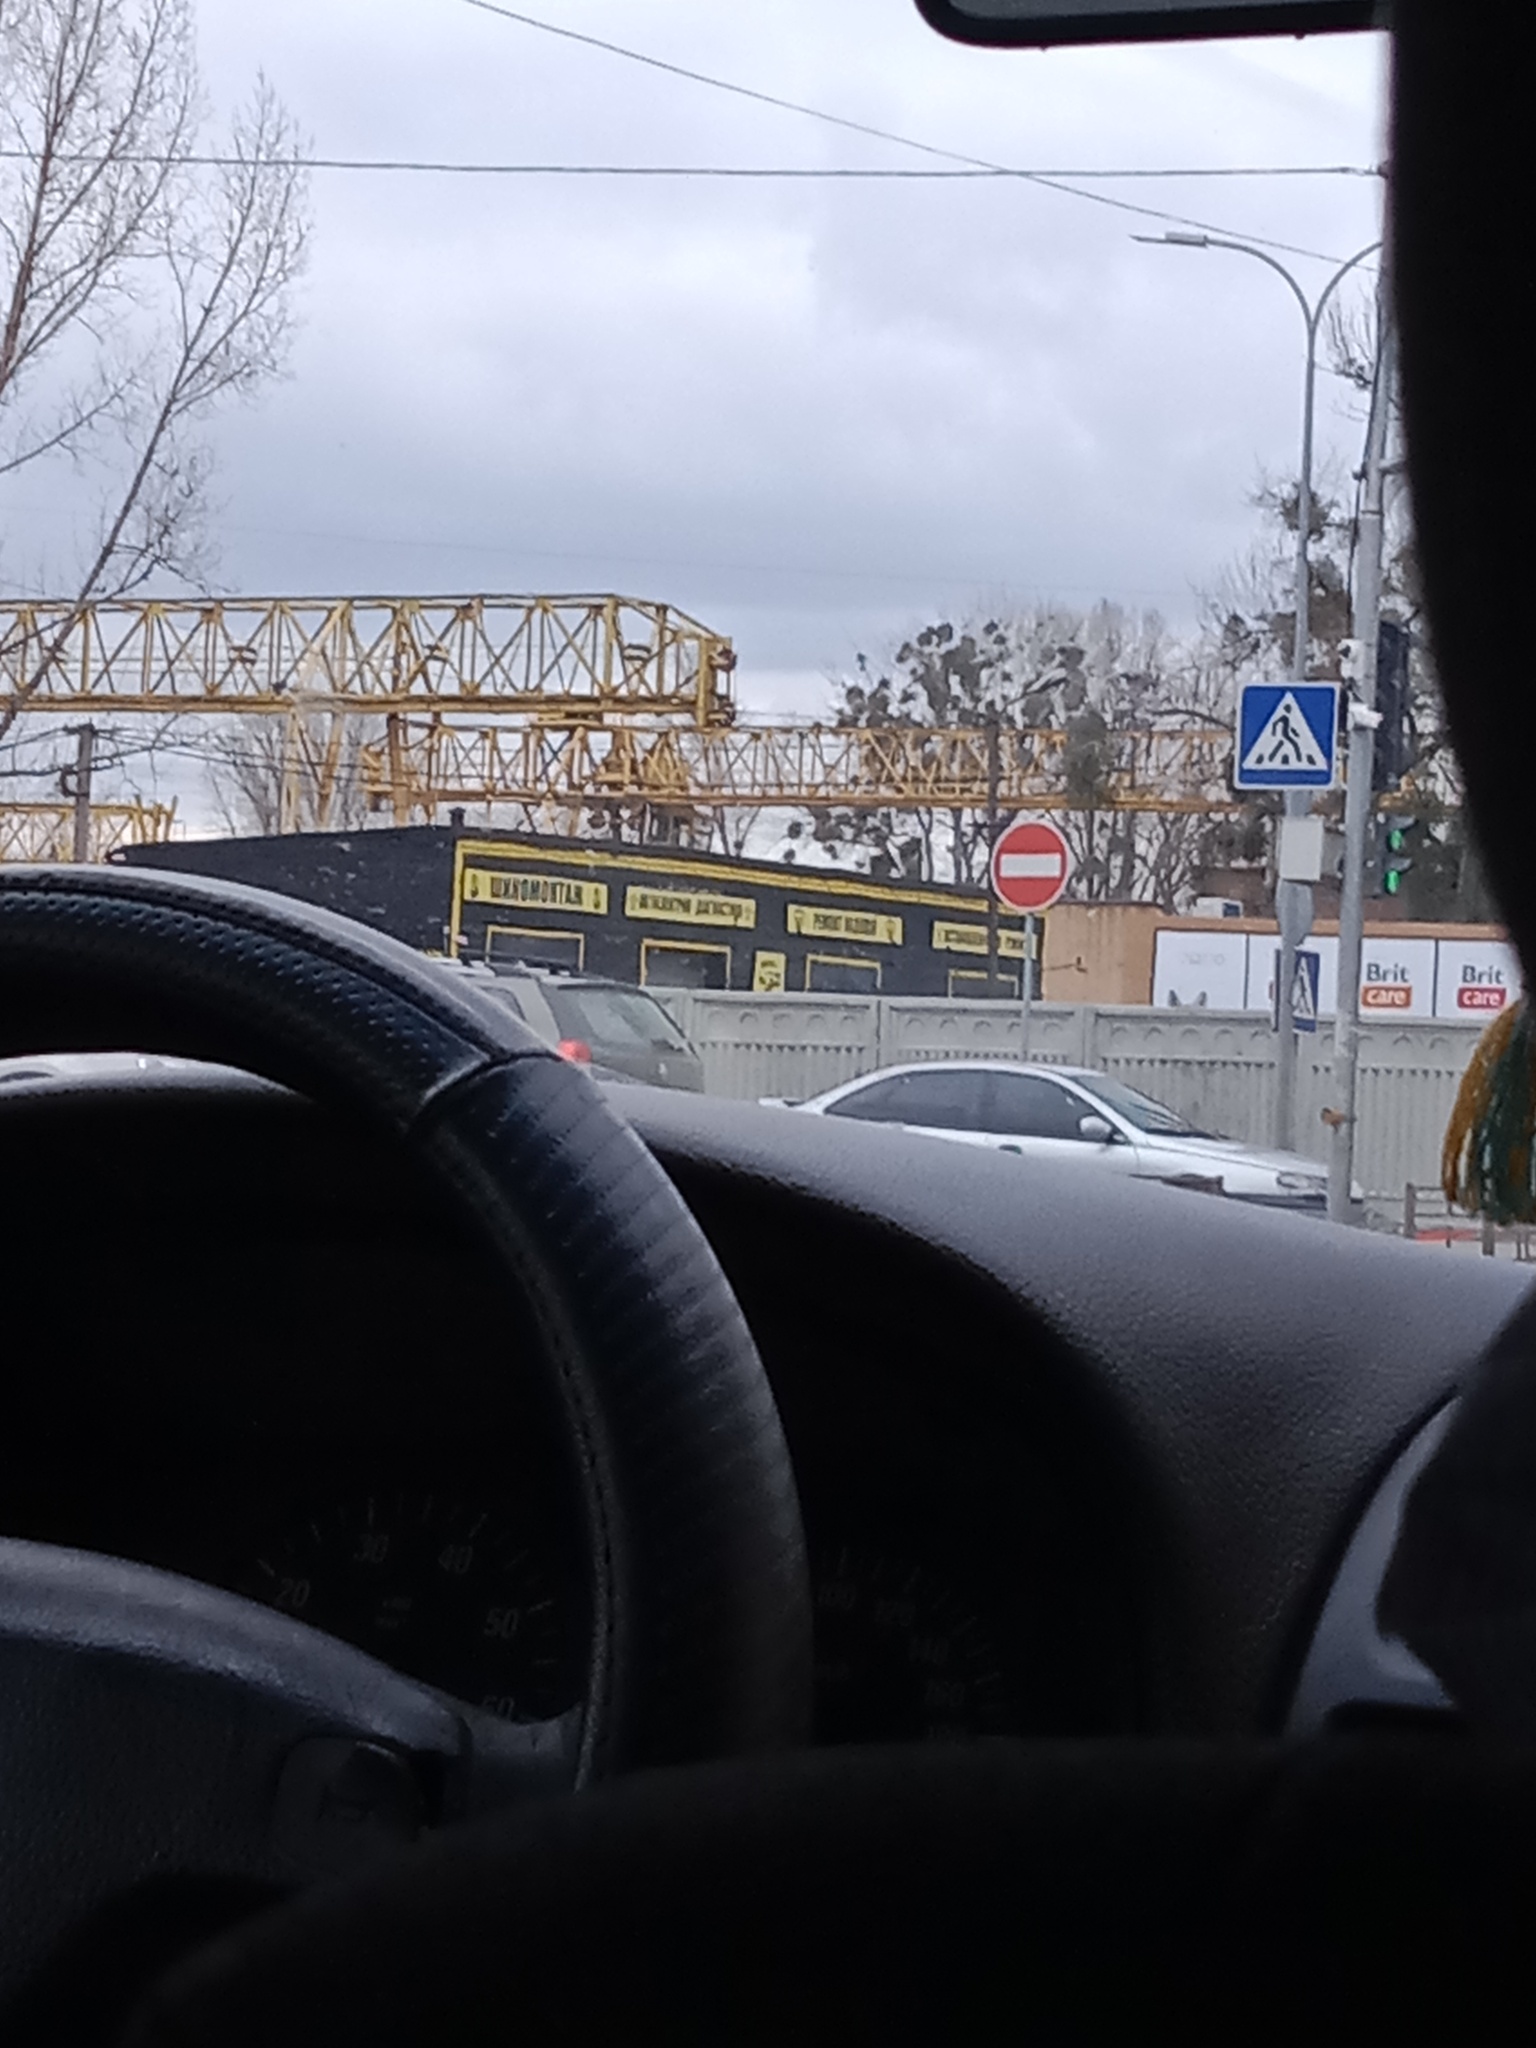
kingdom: Plantae
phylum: Tracheophyta
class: Magnoliopsida
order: Santalales
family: Viscaceae
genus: Viscum
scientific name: Viscum album
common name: Mistletoe
